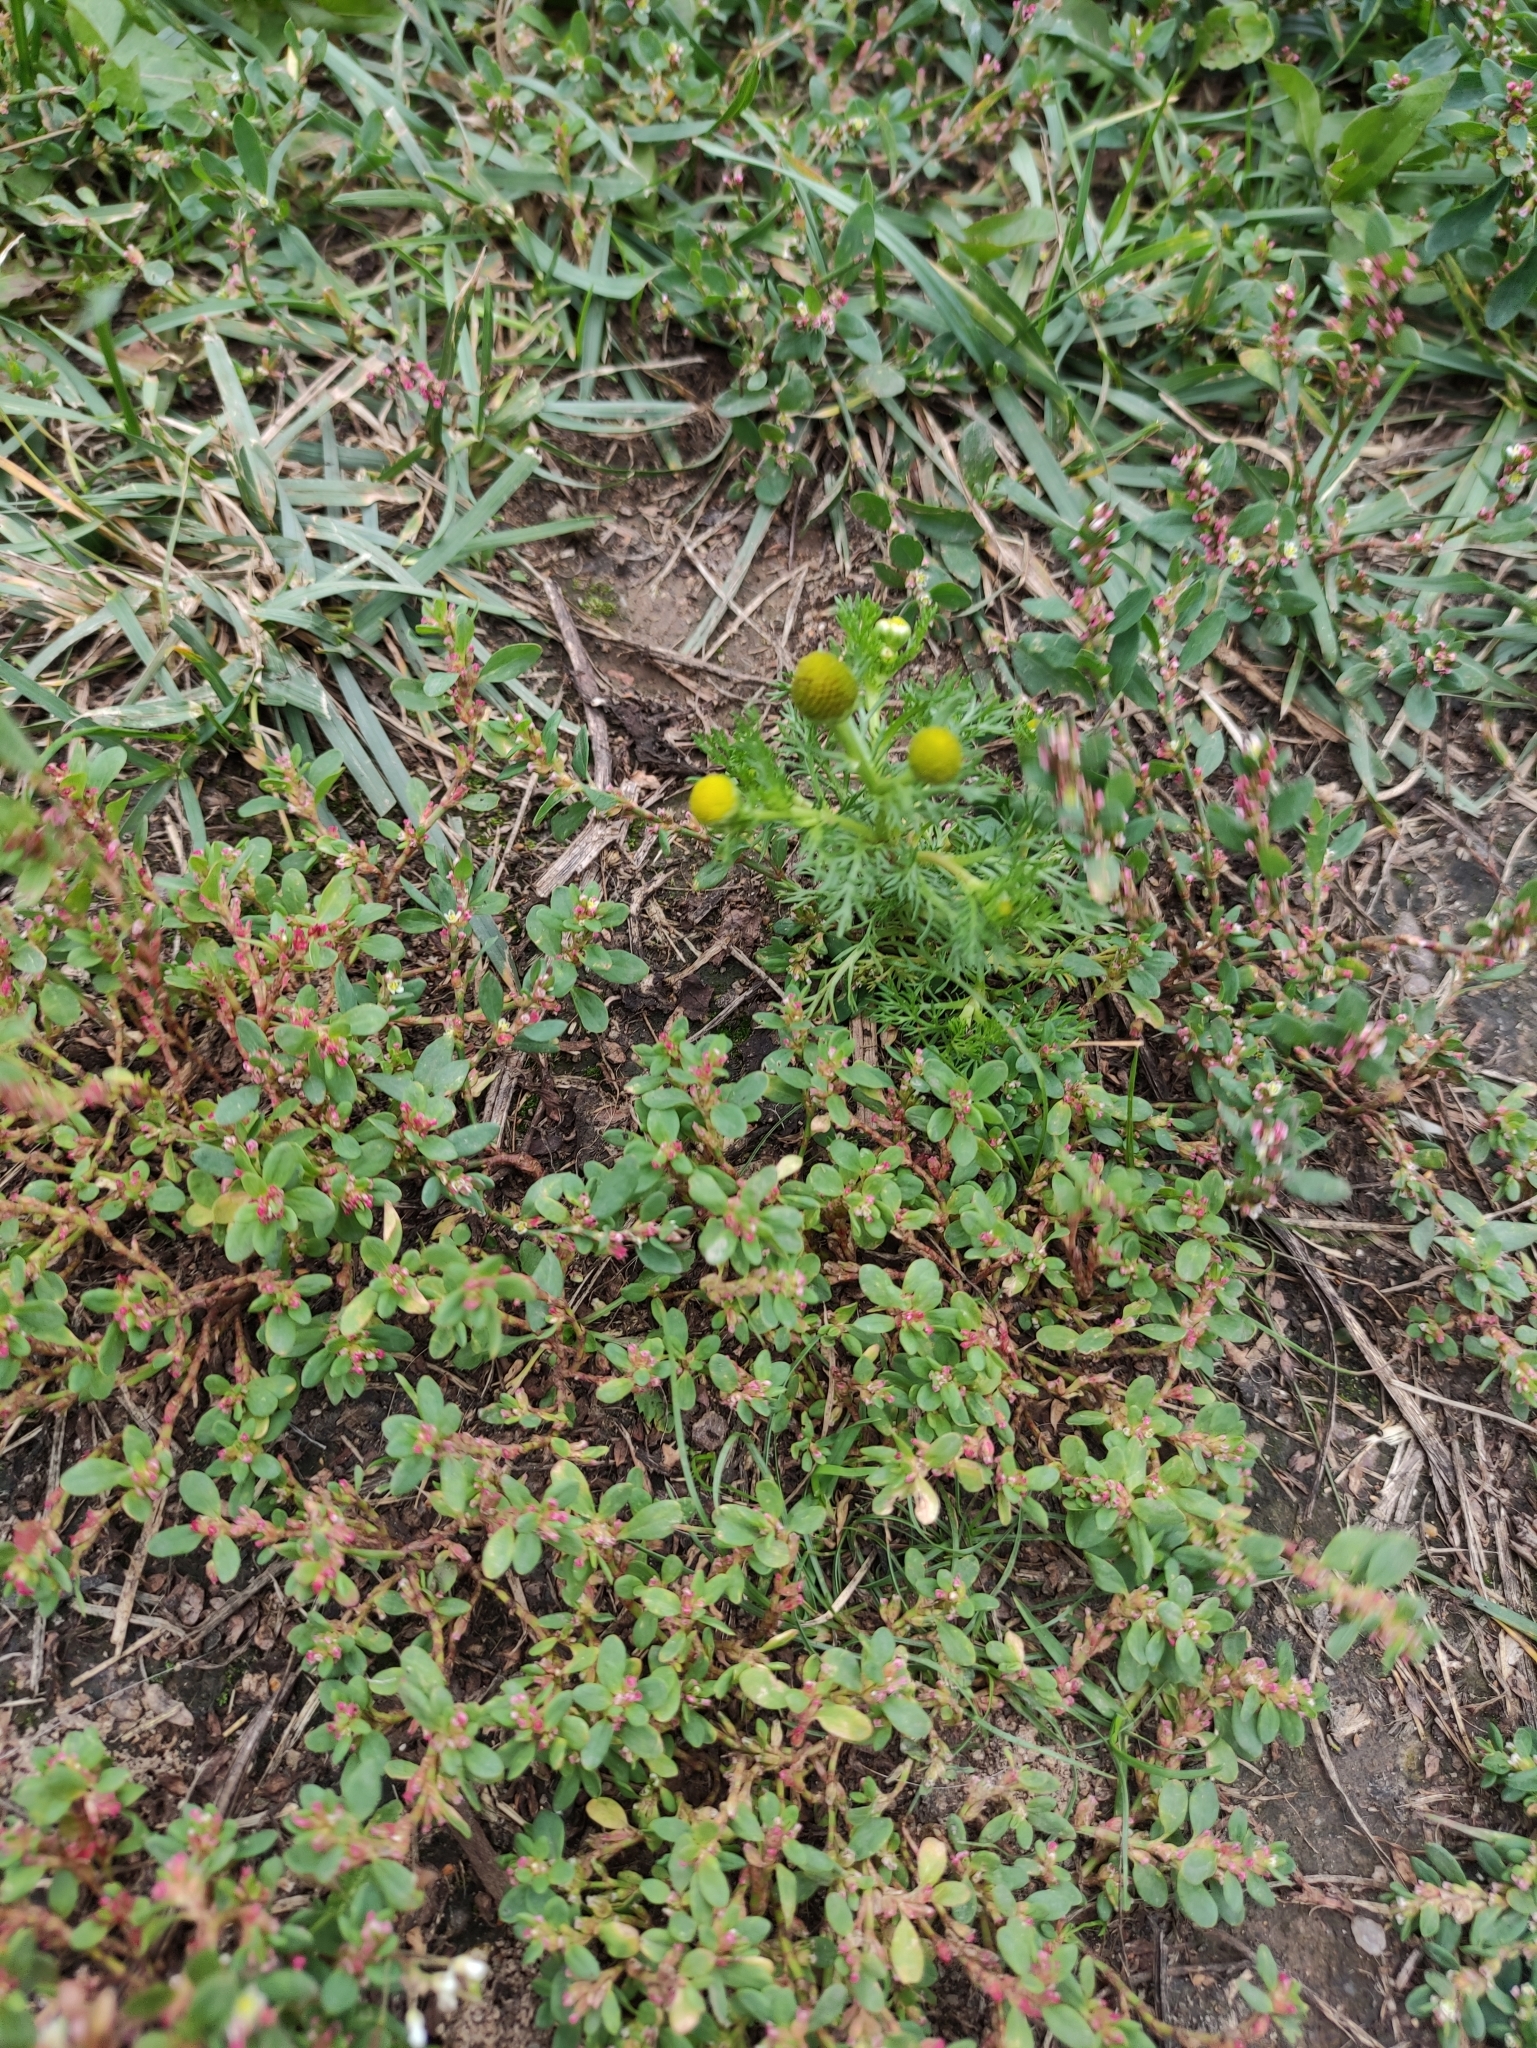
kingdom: Plantae
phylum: Tracheophyta
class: Magnoliopsida
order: Asterales
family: Asteraceae
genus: Matricaria
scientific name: Matricaria discoidea
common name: Disc mayweed
